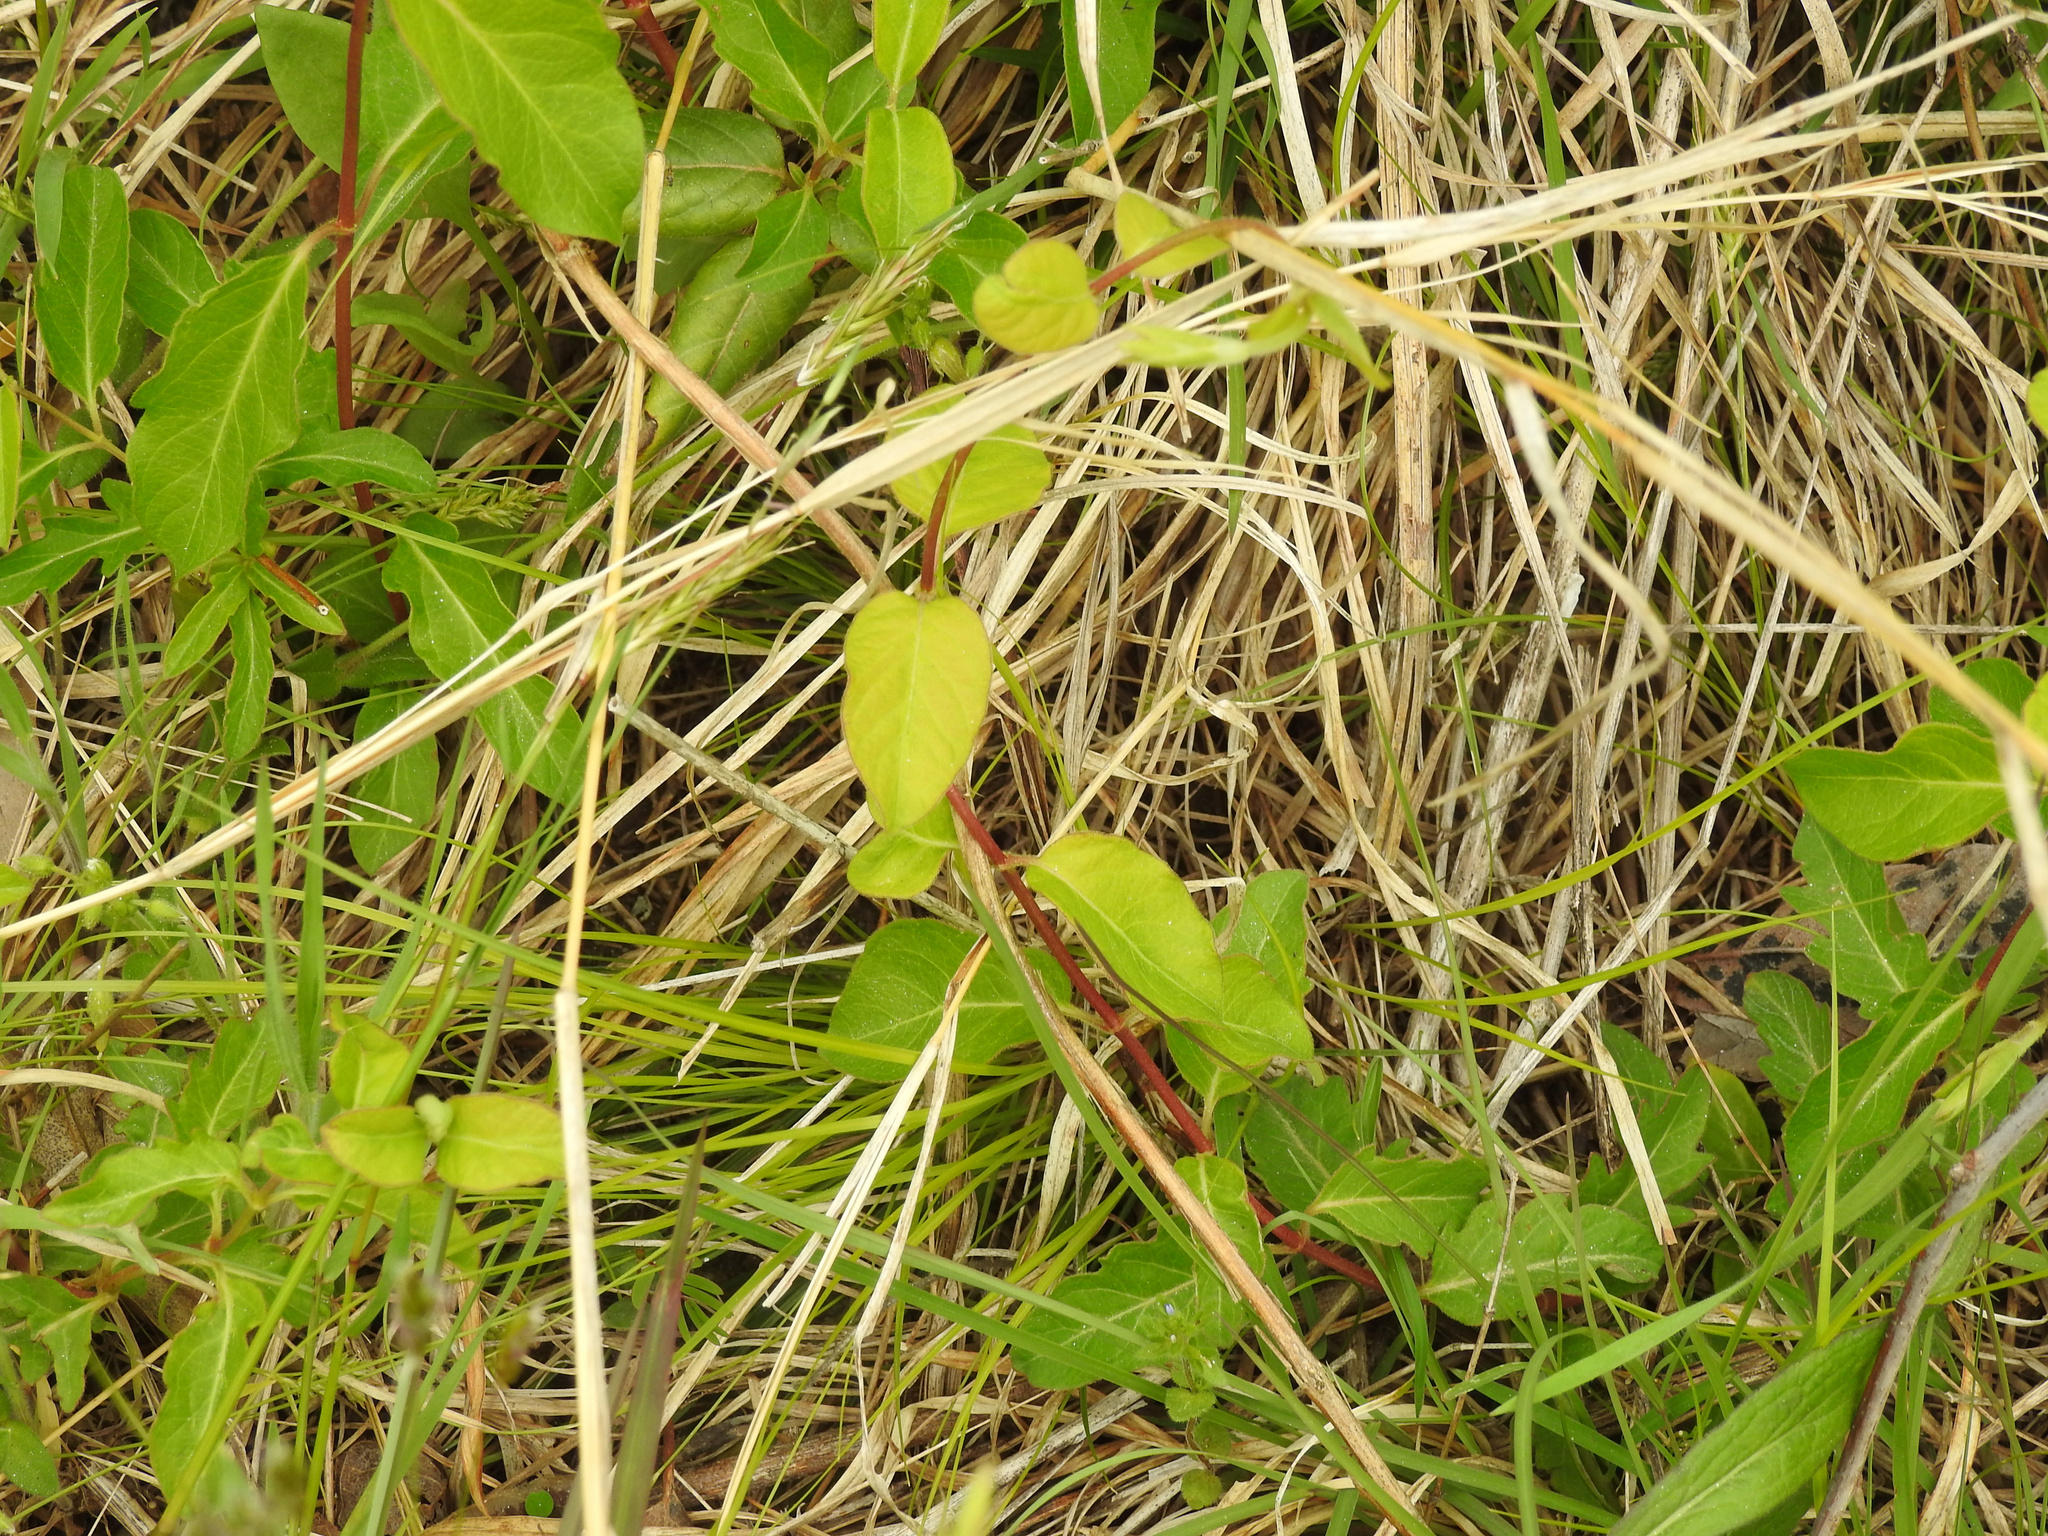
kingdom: Plantae
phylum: Tracheophyta
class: Magnoliopsida
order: Dipsacales
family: Caprifoliaceae
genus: Lonicera
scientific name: Lonicera japonica
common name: Japanese honeysuckle
